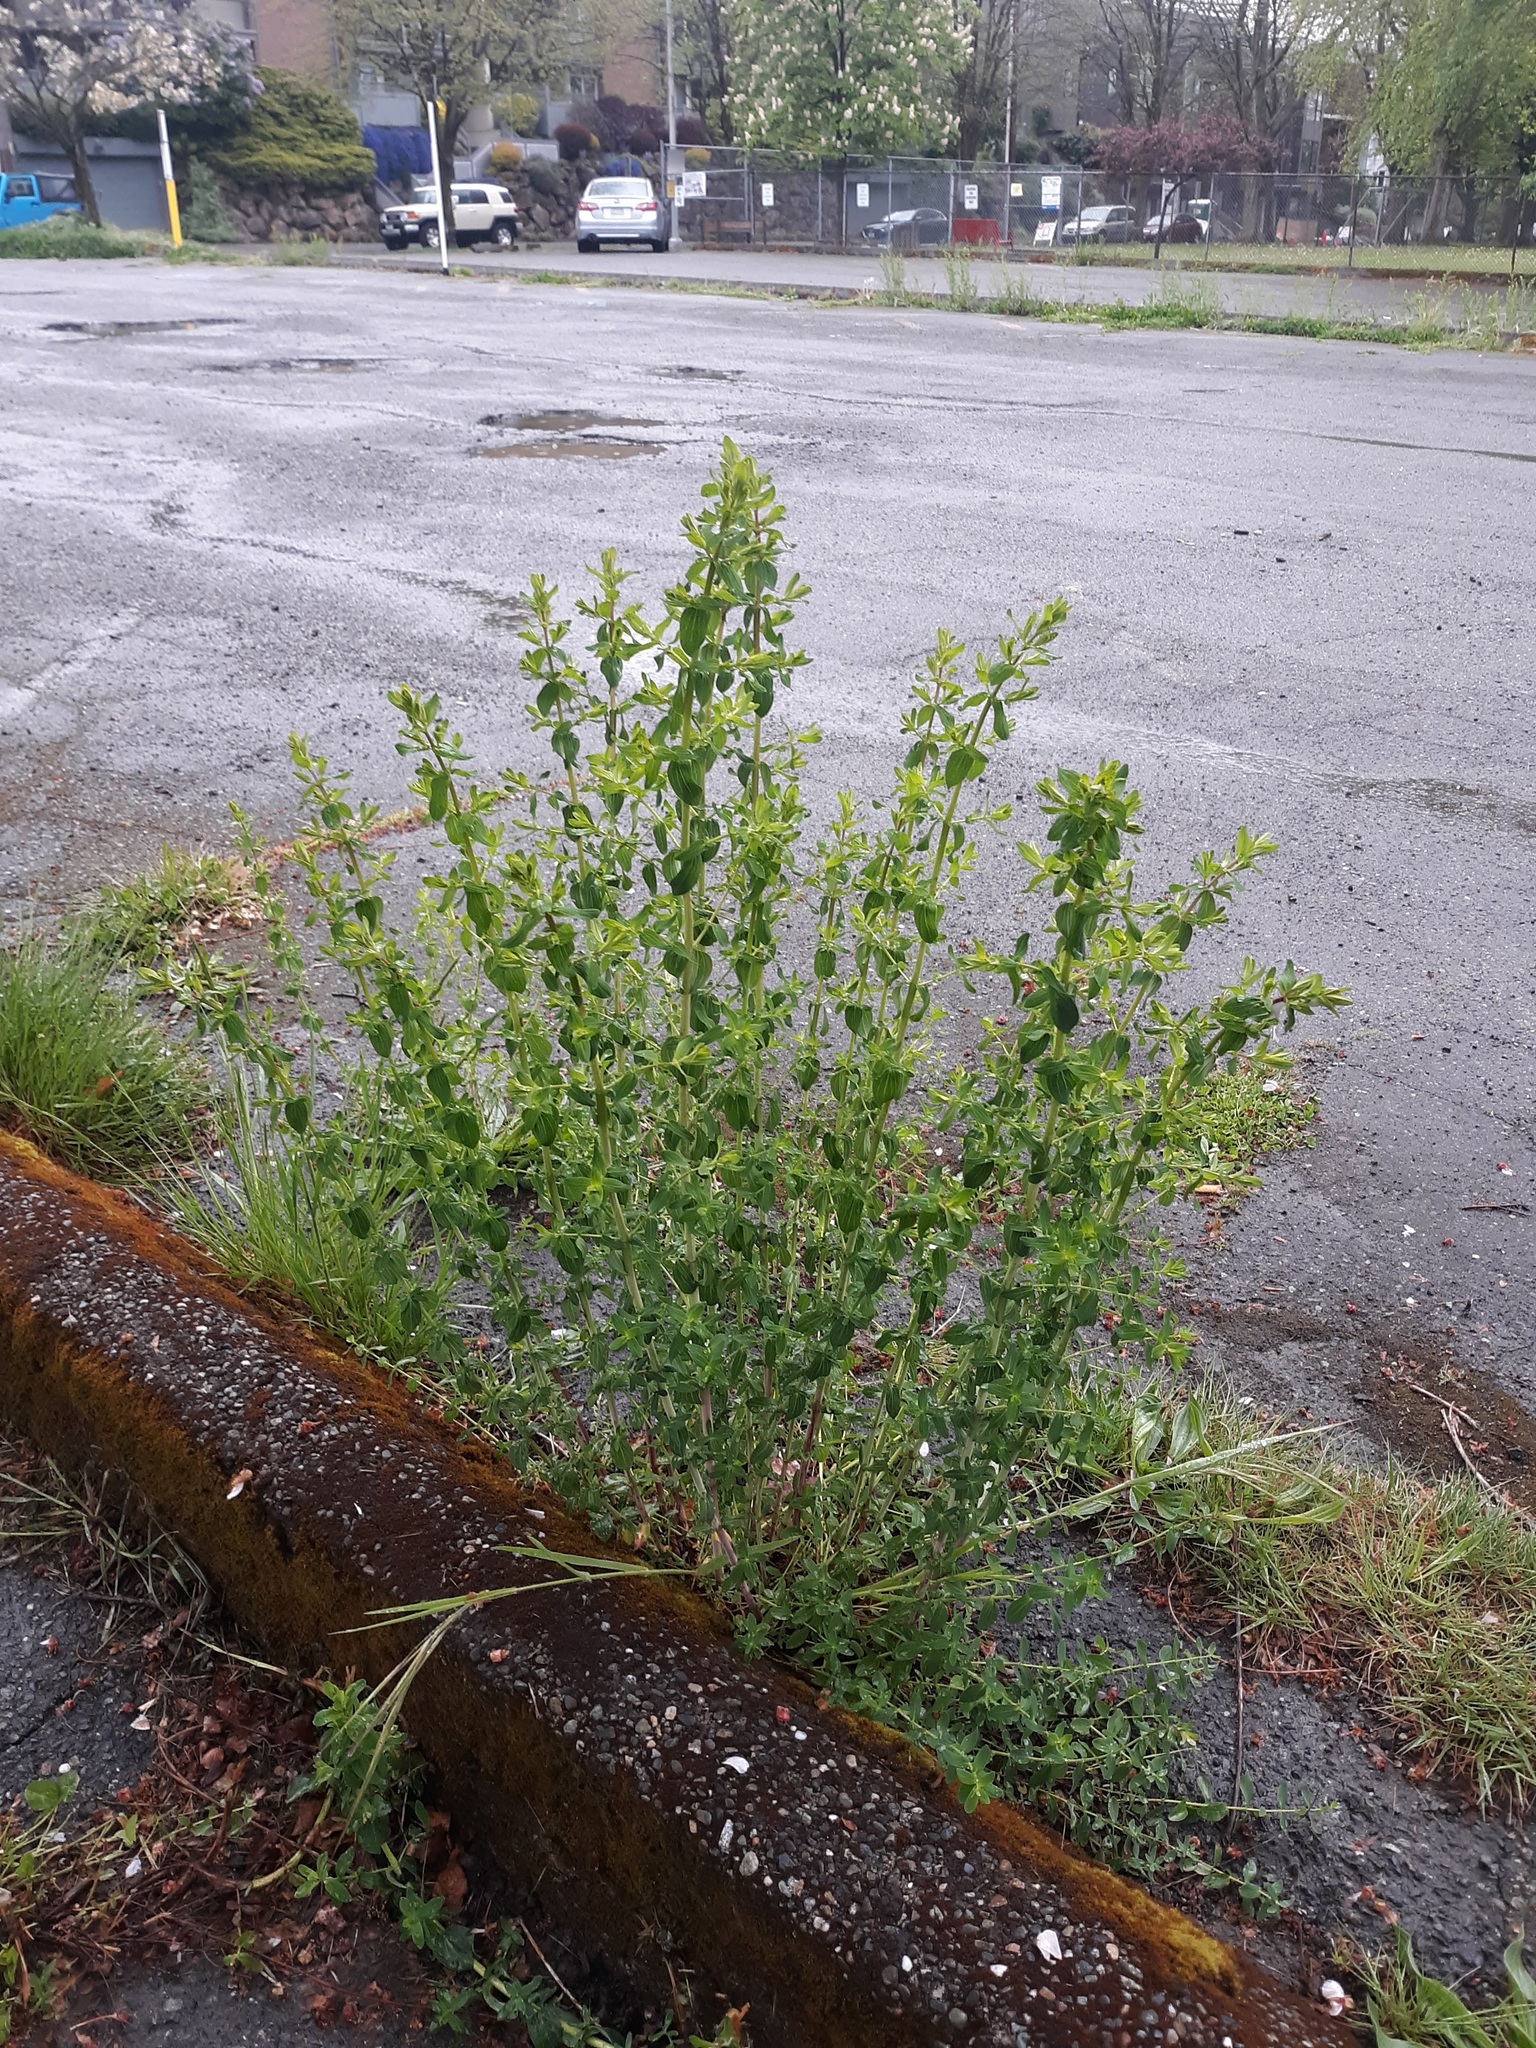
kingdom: Plantae
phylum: Tracheophyta
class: Magnoliopsida
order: Malpighiales
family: Hypericaceae
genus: Hypericum
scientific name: Hypericum perforatum
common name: Common st. johnswort
